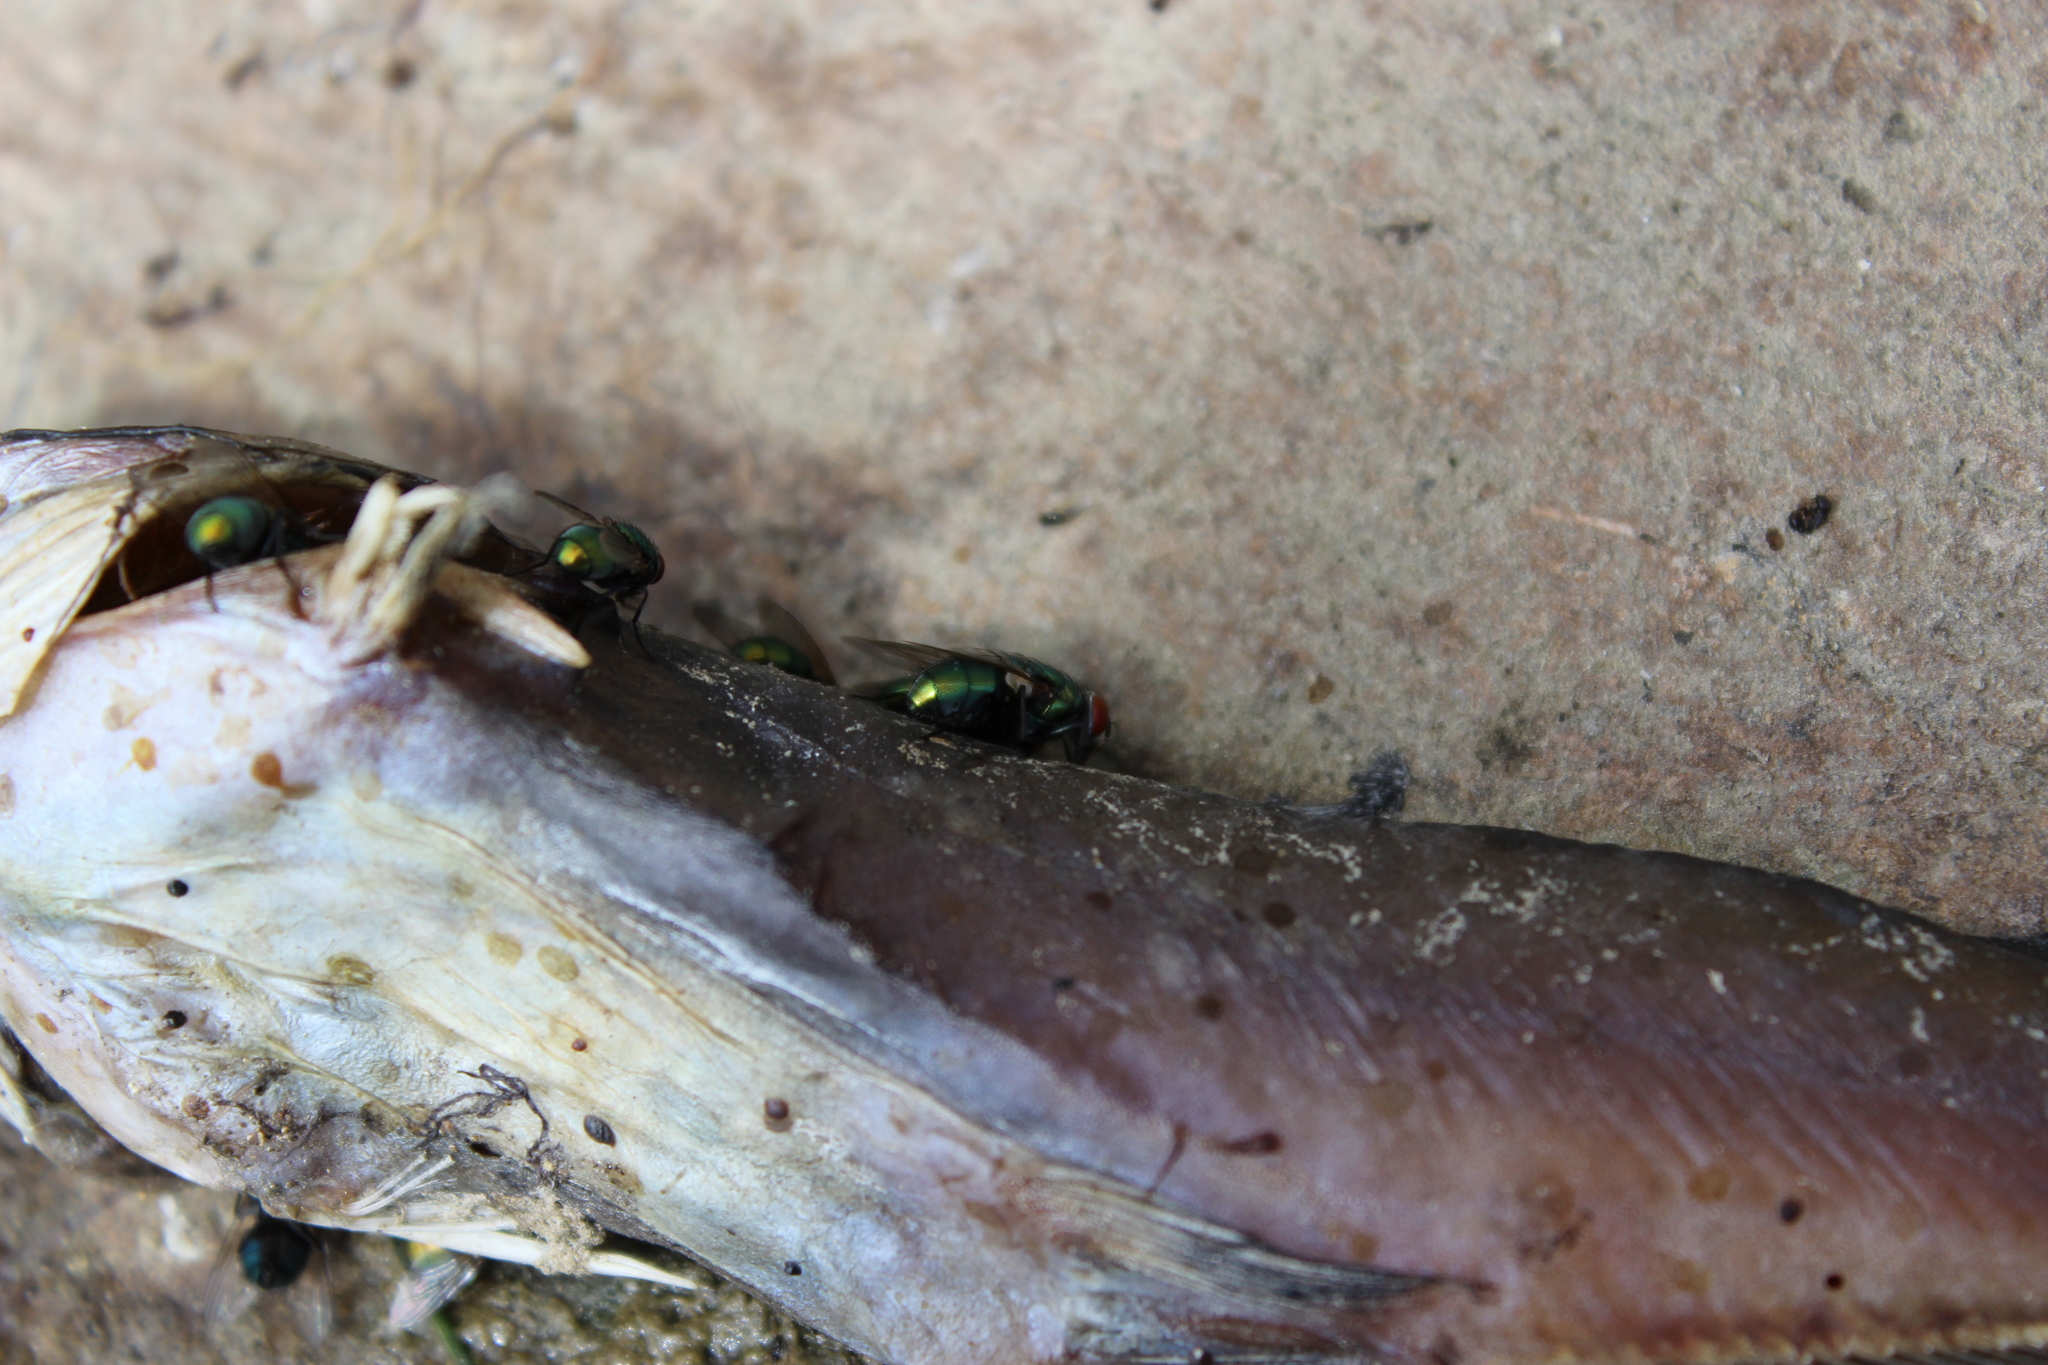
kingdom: Animalia
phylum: Arthropoda
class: Insecta
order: Diptera
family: Calliphoridae
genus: Lucilia
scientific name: Lucilia
